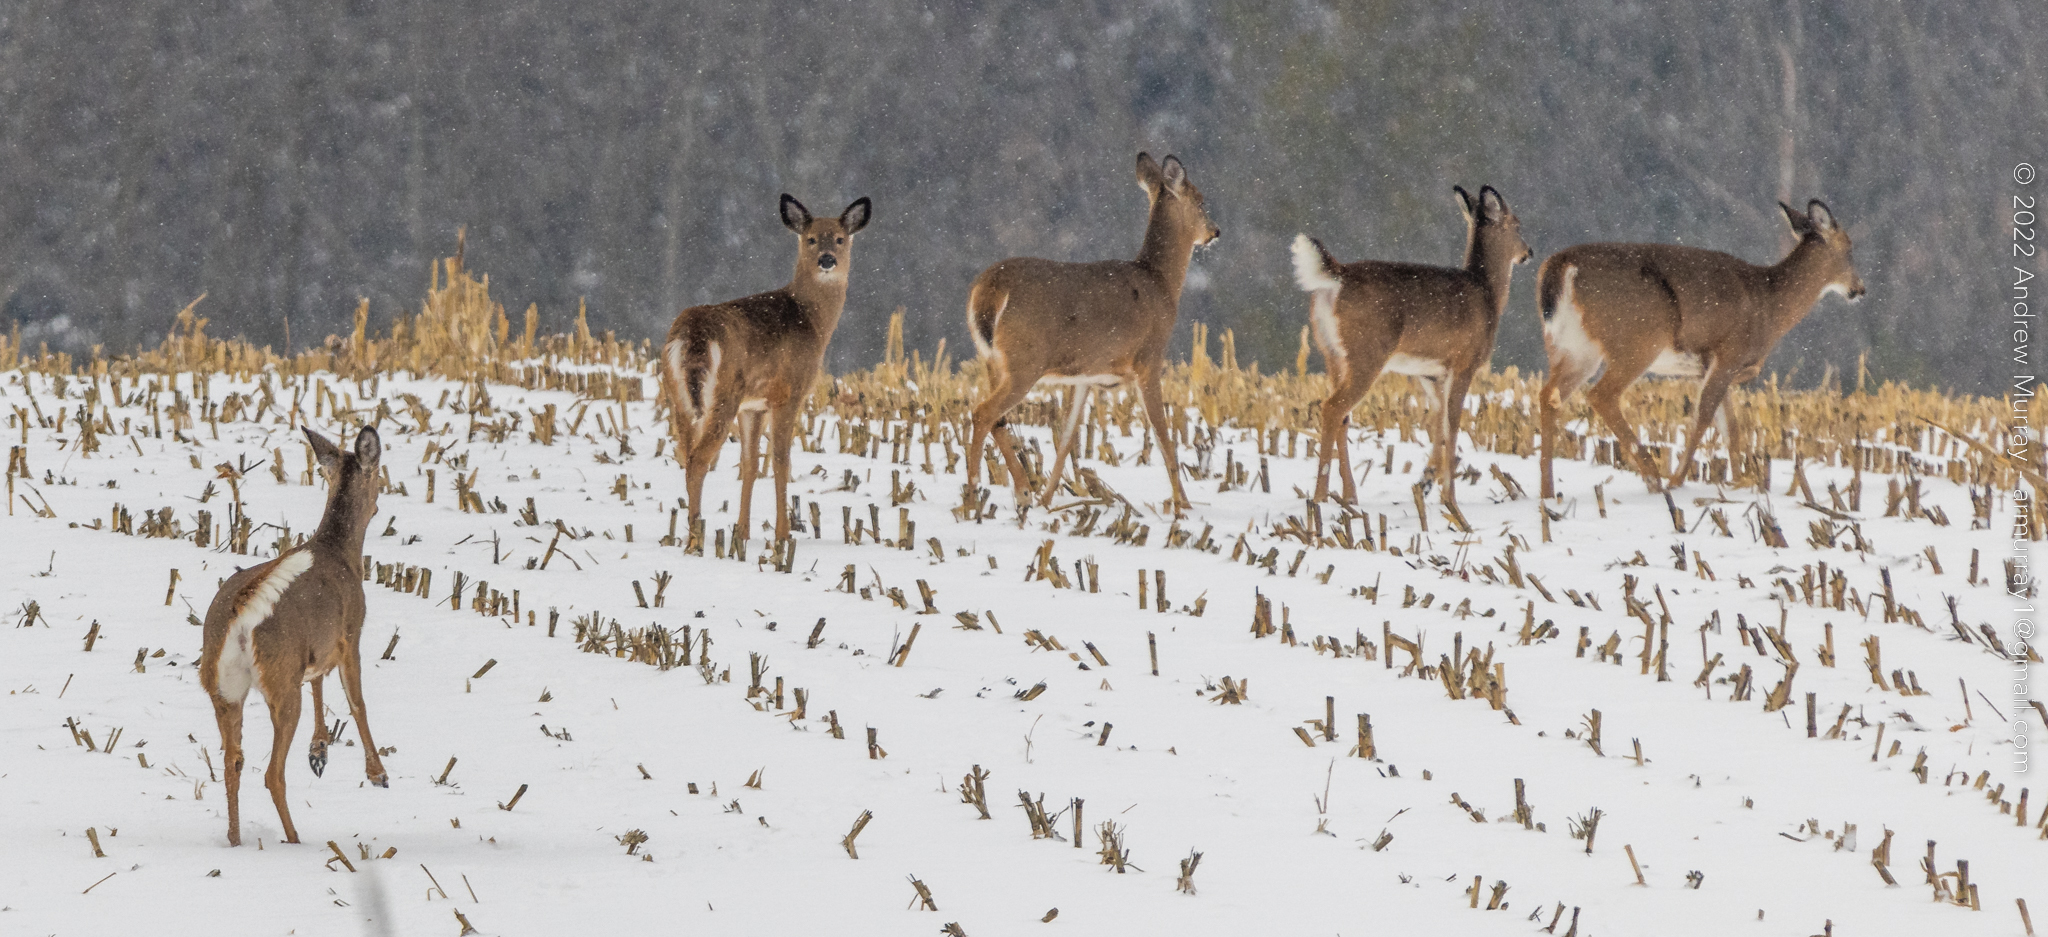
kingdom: Animalia
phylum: Chordata
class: Mammalia
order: Artiodactyla
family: Cervidae
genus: Odocoileus
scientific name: Odocoileus virginianus
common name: White-tailed deer
